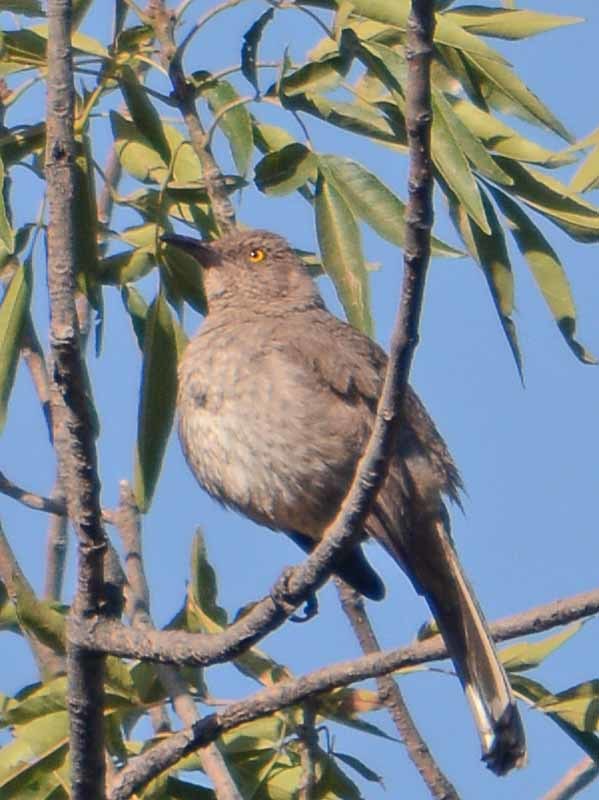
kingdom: Animalia
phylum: Chordata
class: Aves
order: Passeriformes
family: Mimidae
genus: Toxostoma
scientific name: Toxostoma curvirostre
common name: Curve-billed thrasher
